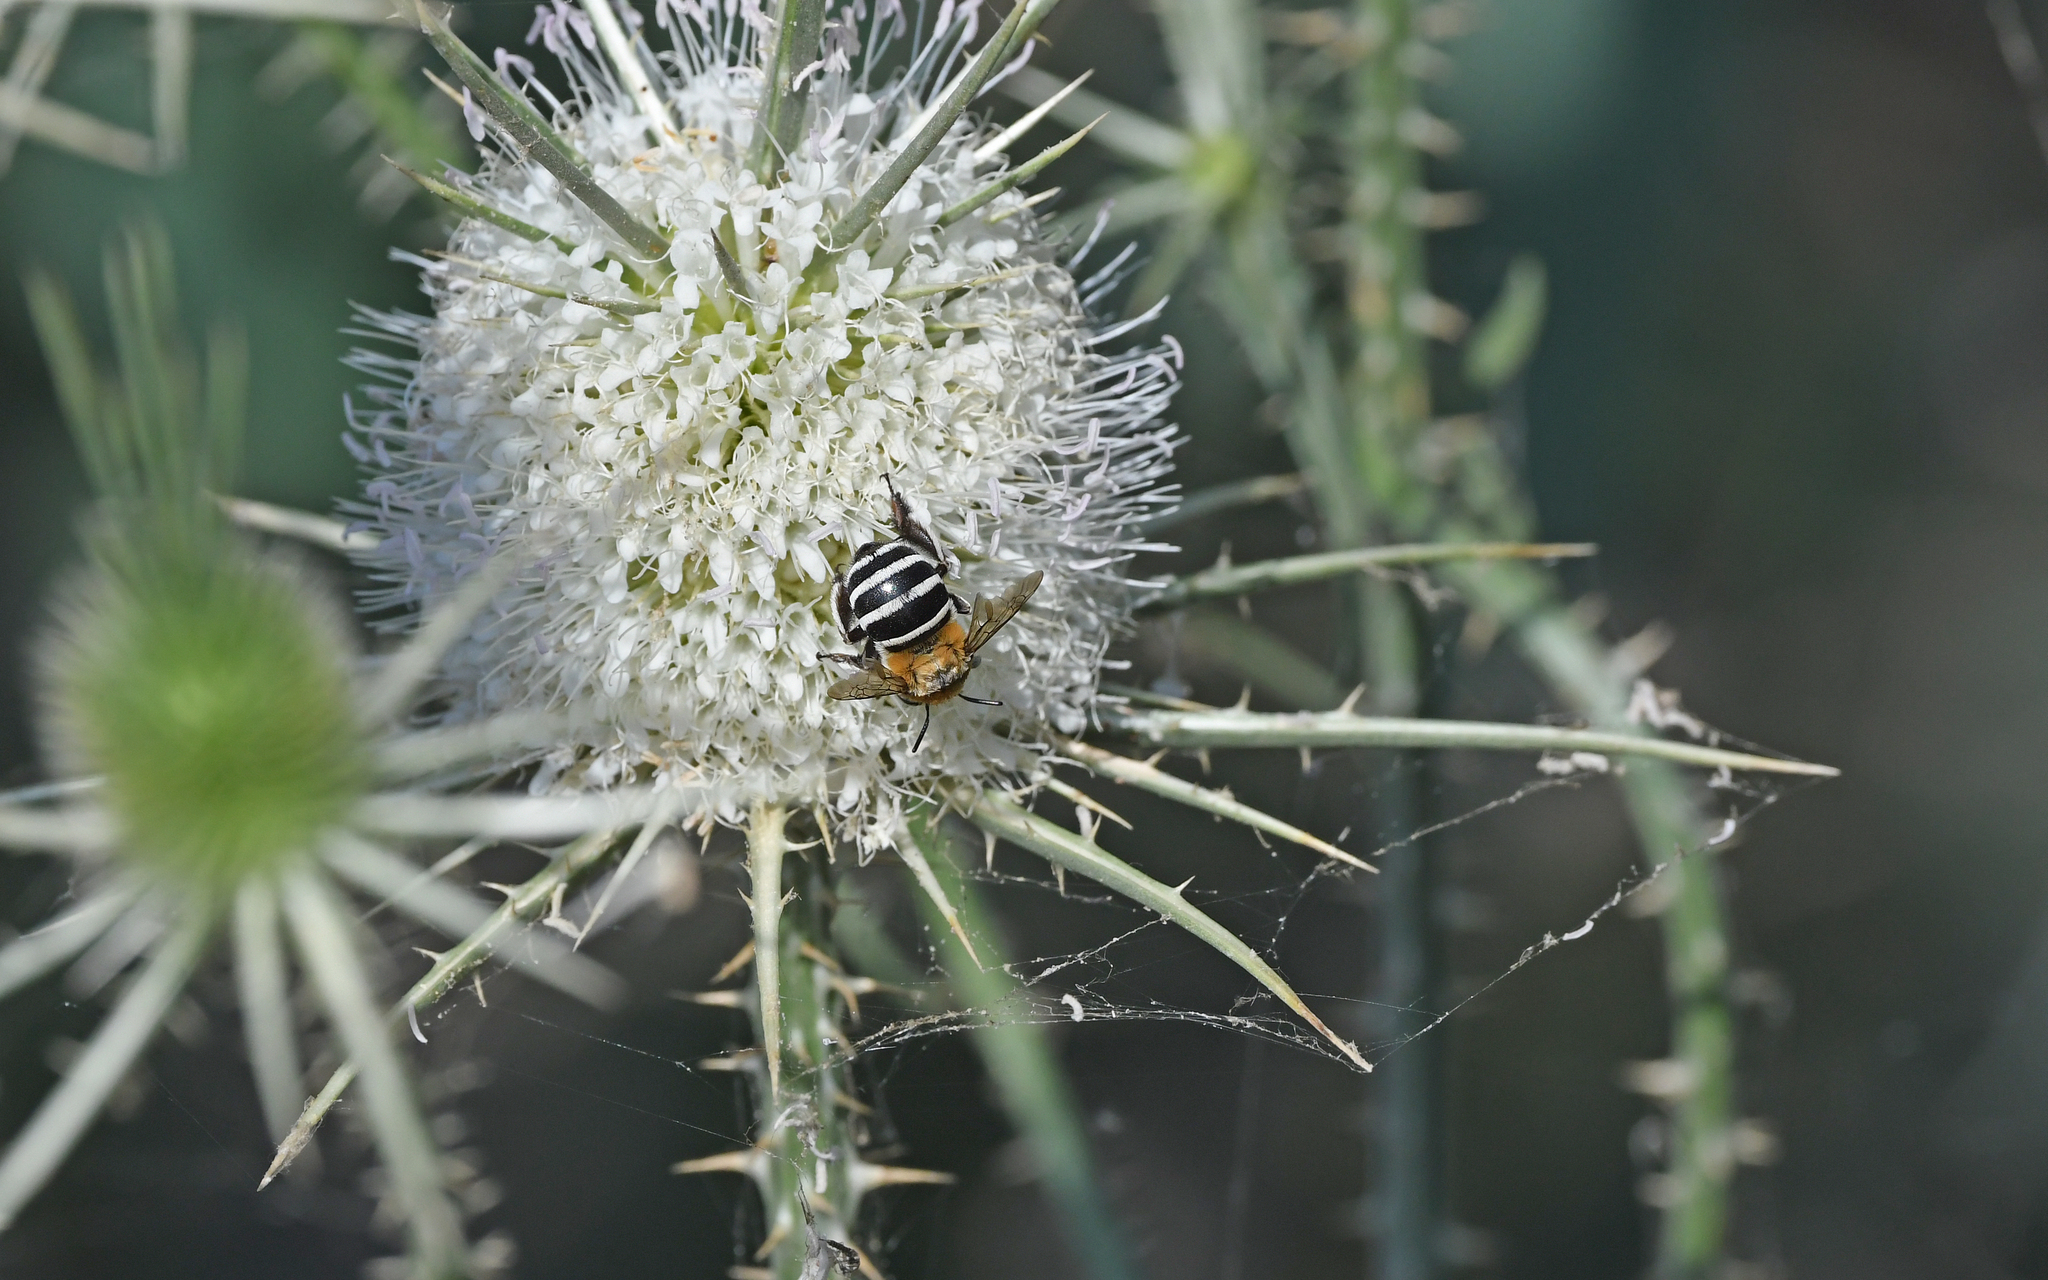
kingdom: Animalia
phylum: Arthropoda
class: Insecta
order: Hymenoptera
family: Apidae
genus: Amegilla
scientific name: Amegilla quadrifasciata
